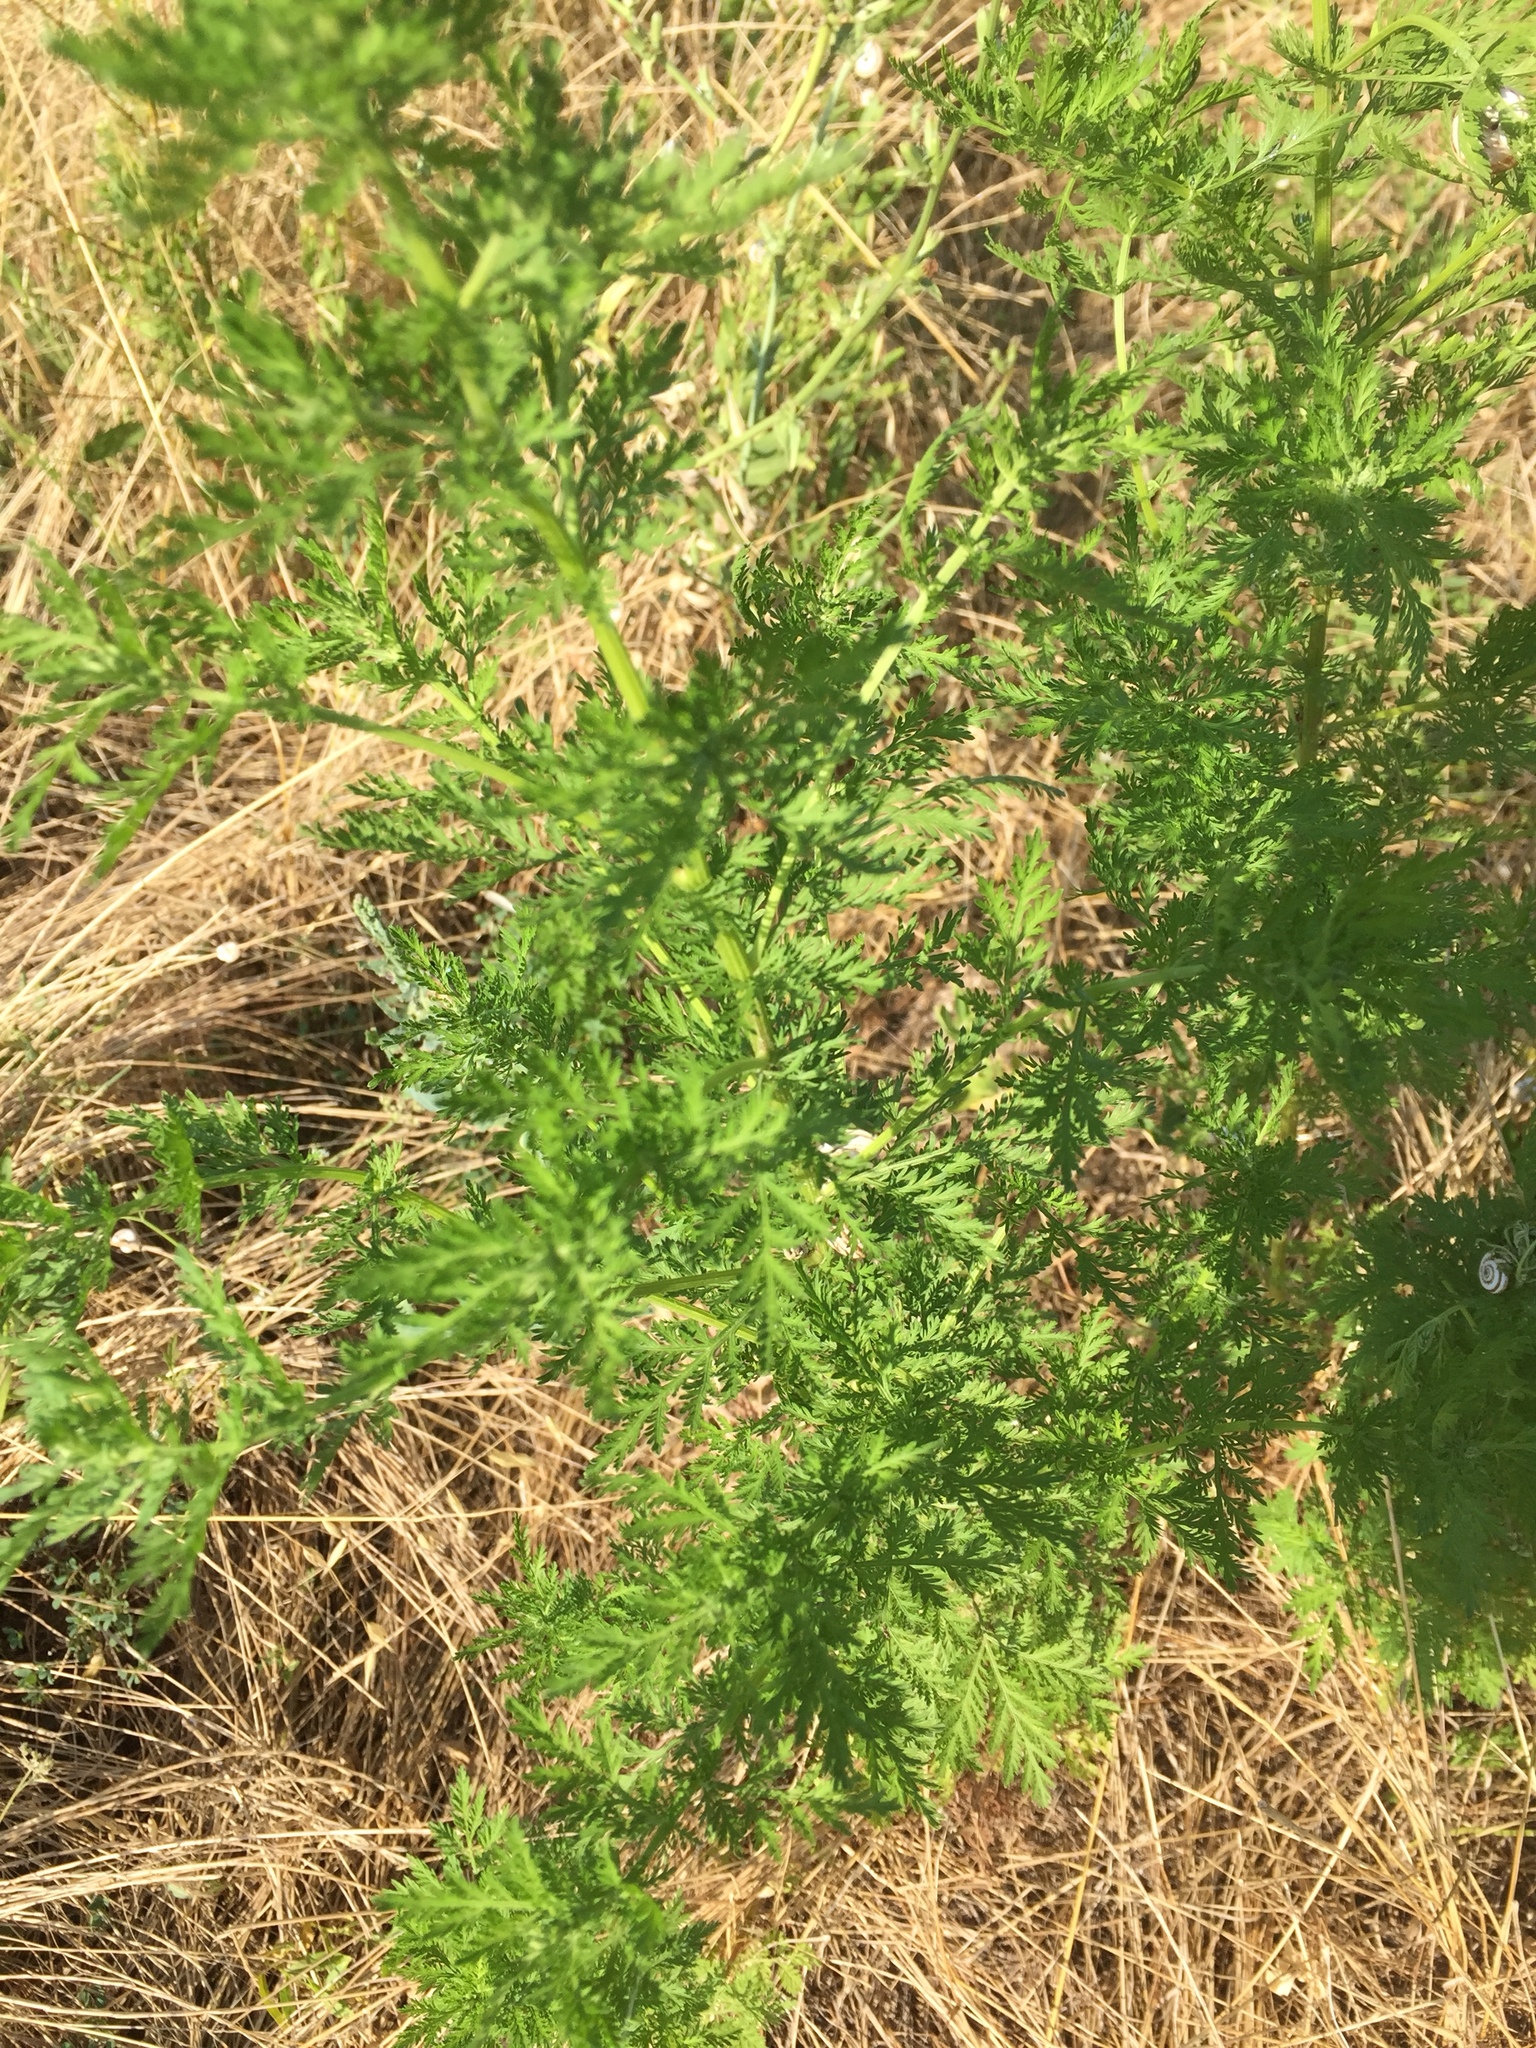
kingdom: Plantae
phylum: Tracheophyta
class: Magnoliopsida
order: Asterales
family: Asteraceae
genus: Artemisia
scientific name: Artemisia annua
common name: Sweet sagewort
